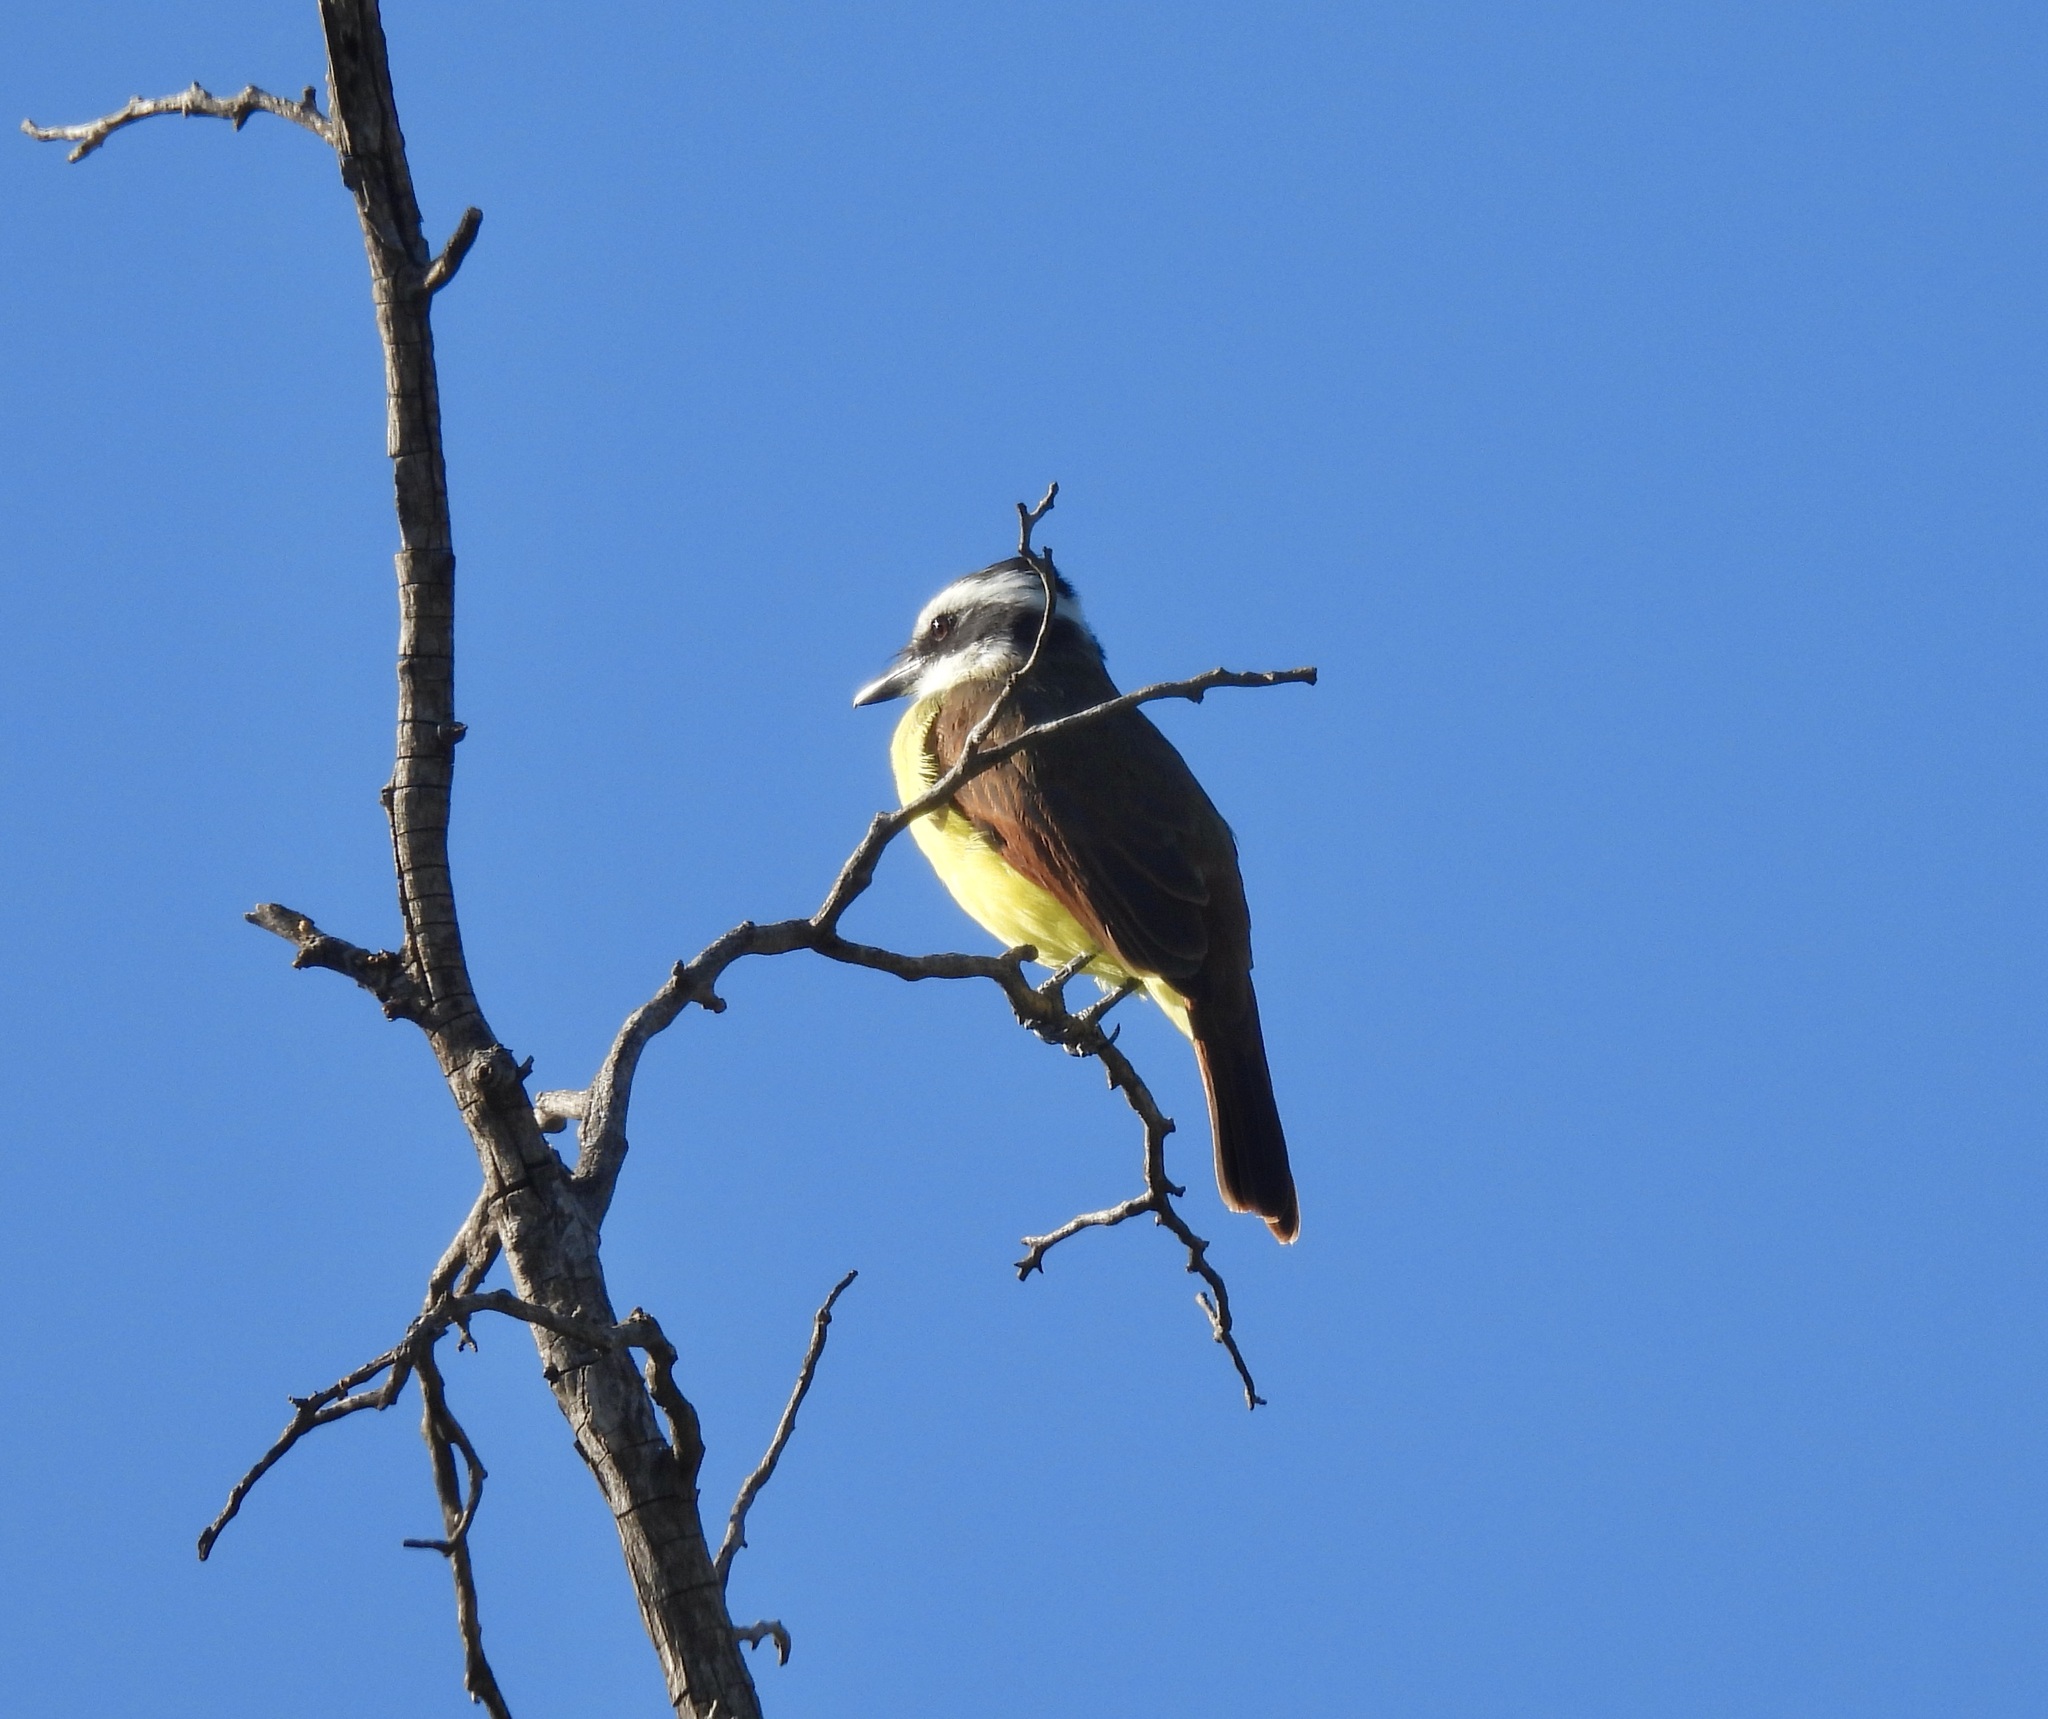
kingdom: Animalia
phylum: Chordata
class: Aves
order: Passeriformes
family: Tyrannidae
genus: Pitangus
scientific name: Pitangus sulphuratus
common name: Great kiskadee
